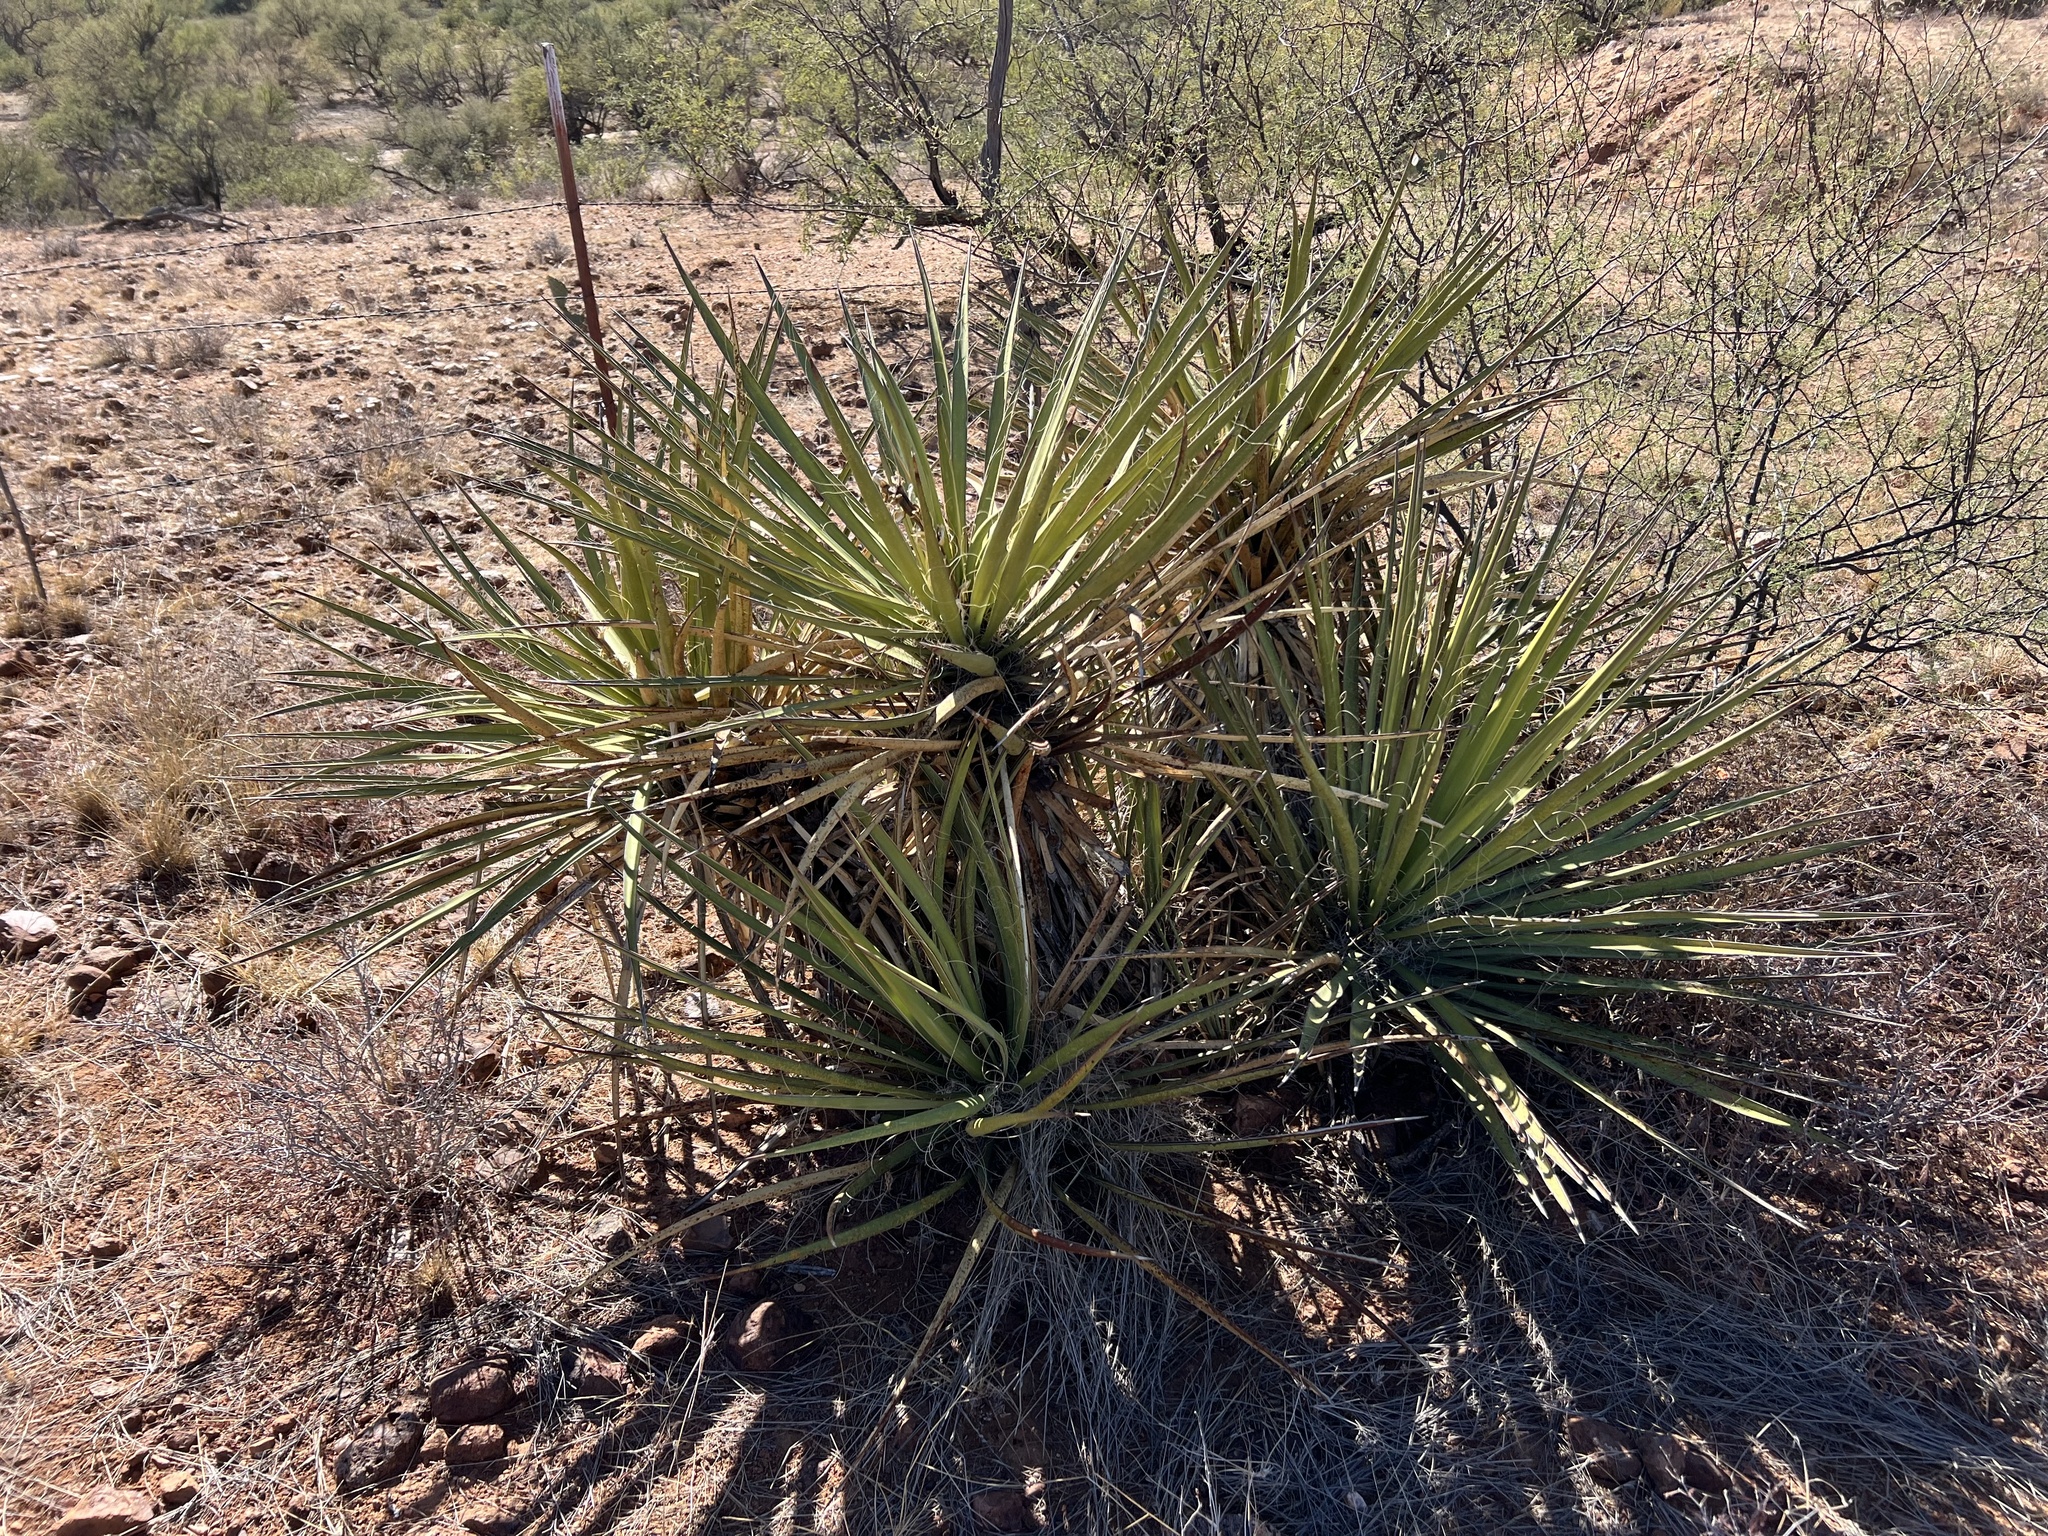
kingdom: Plantae
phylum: Tracheophyta
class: Liliopsida
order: Asparagales
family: Asparagaceae
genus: Yucca
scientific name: Yucca baccata
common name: Banana yucca
